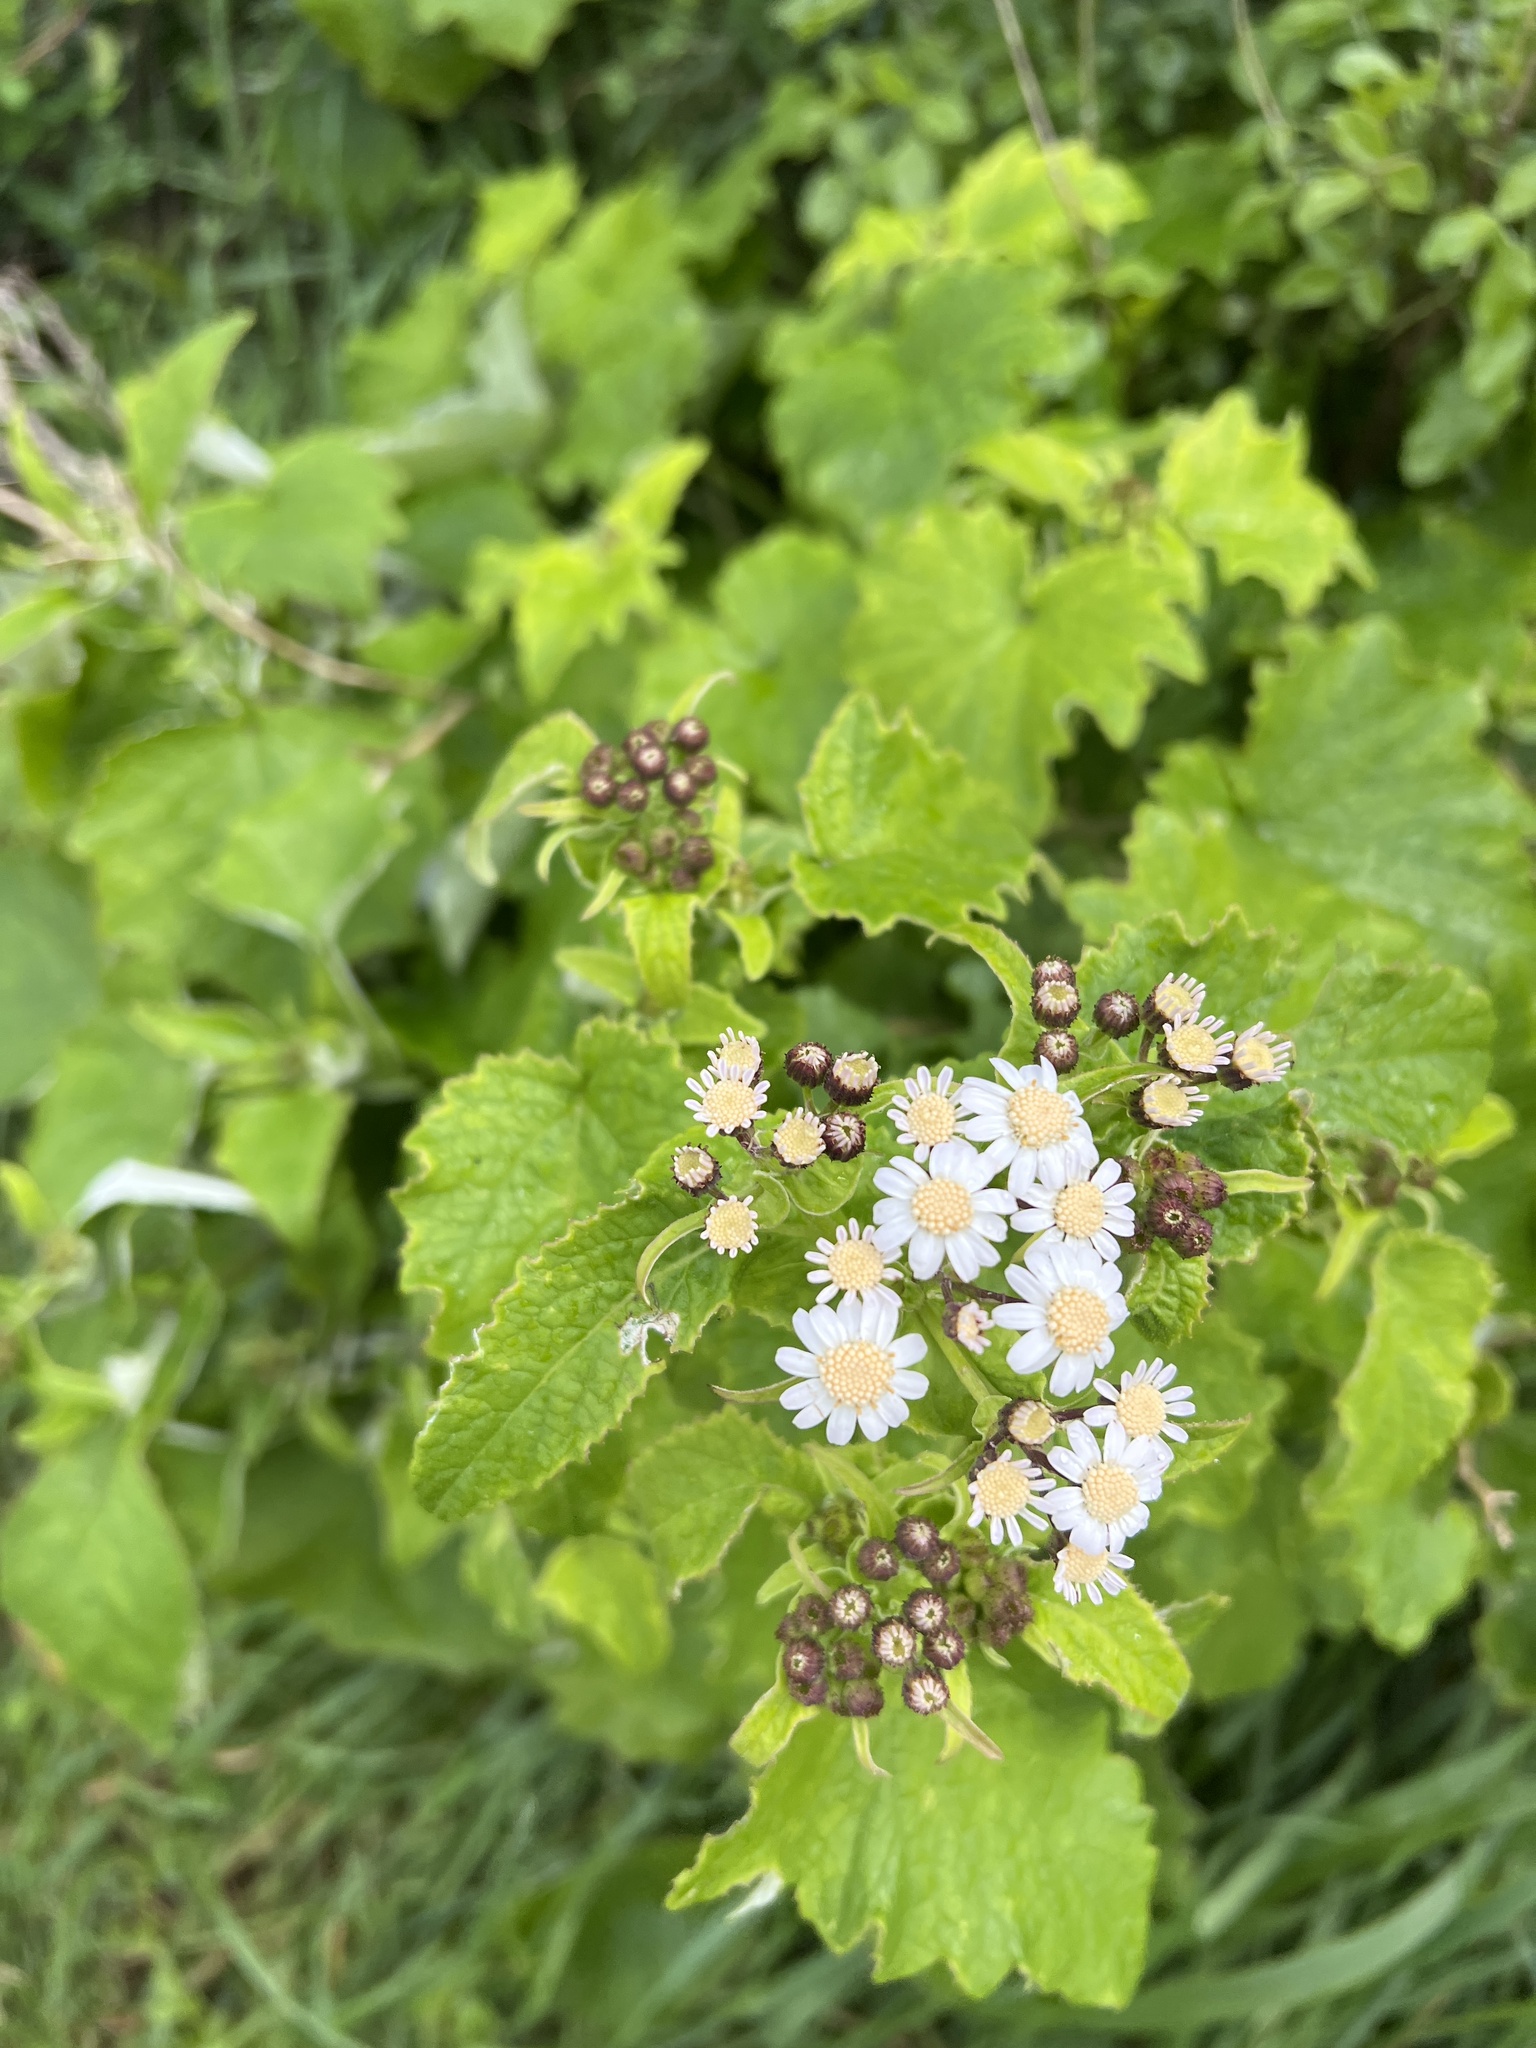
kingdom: Plantae
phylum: Tracheophyta
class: Magnoliopsida
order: Asterales
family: Asteraceae
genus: Pericallis
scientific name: Pericallis steetzii
